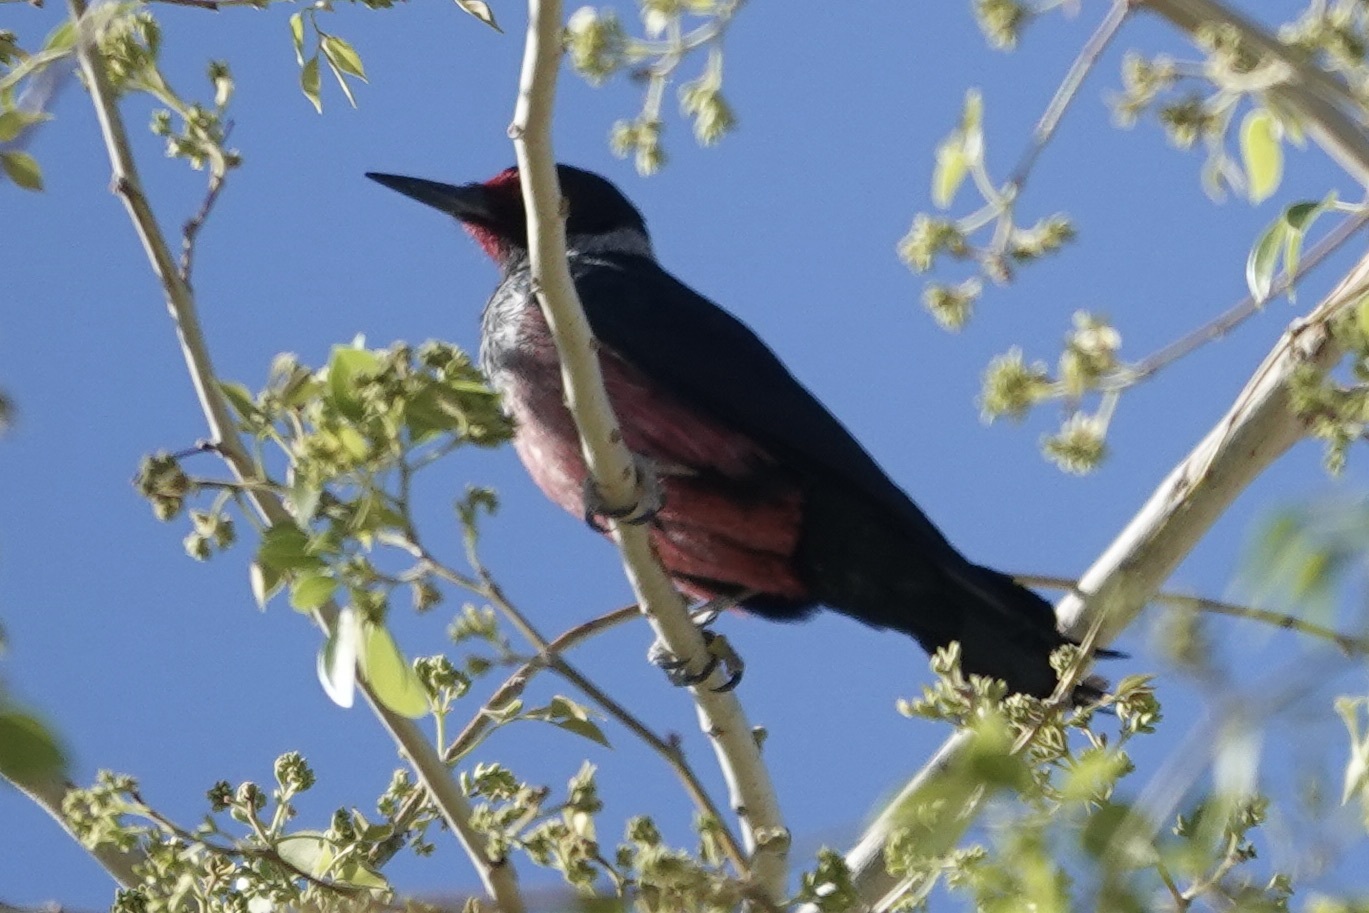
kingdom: Animalia
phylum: Chordata
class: Aves
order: Piciformes
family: Picidae
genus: Melanerpes
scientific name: Melanerpes lewis
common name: Lewis's woodpecker
